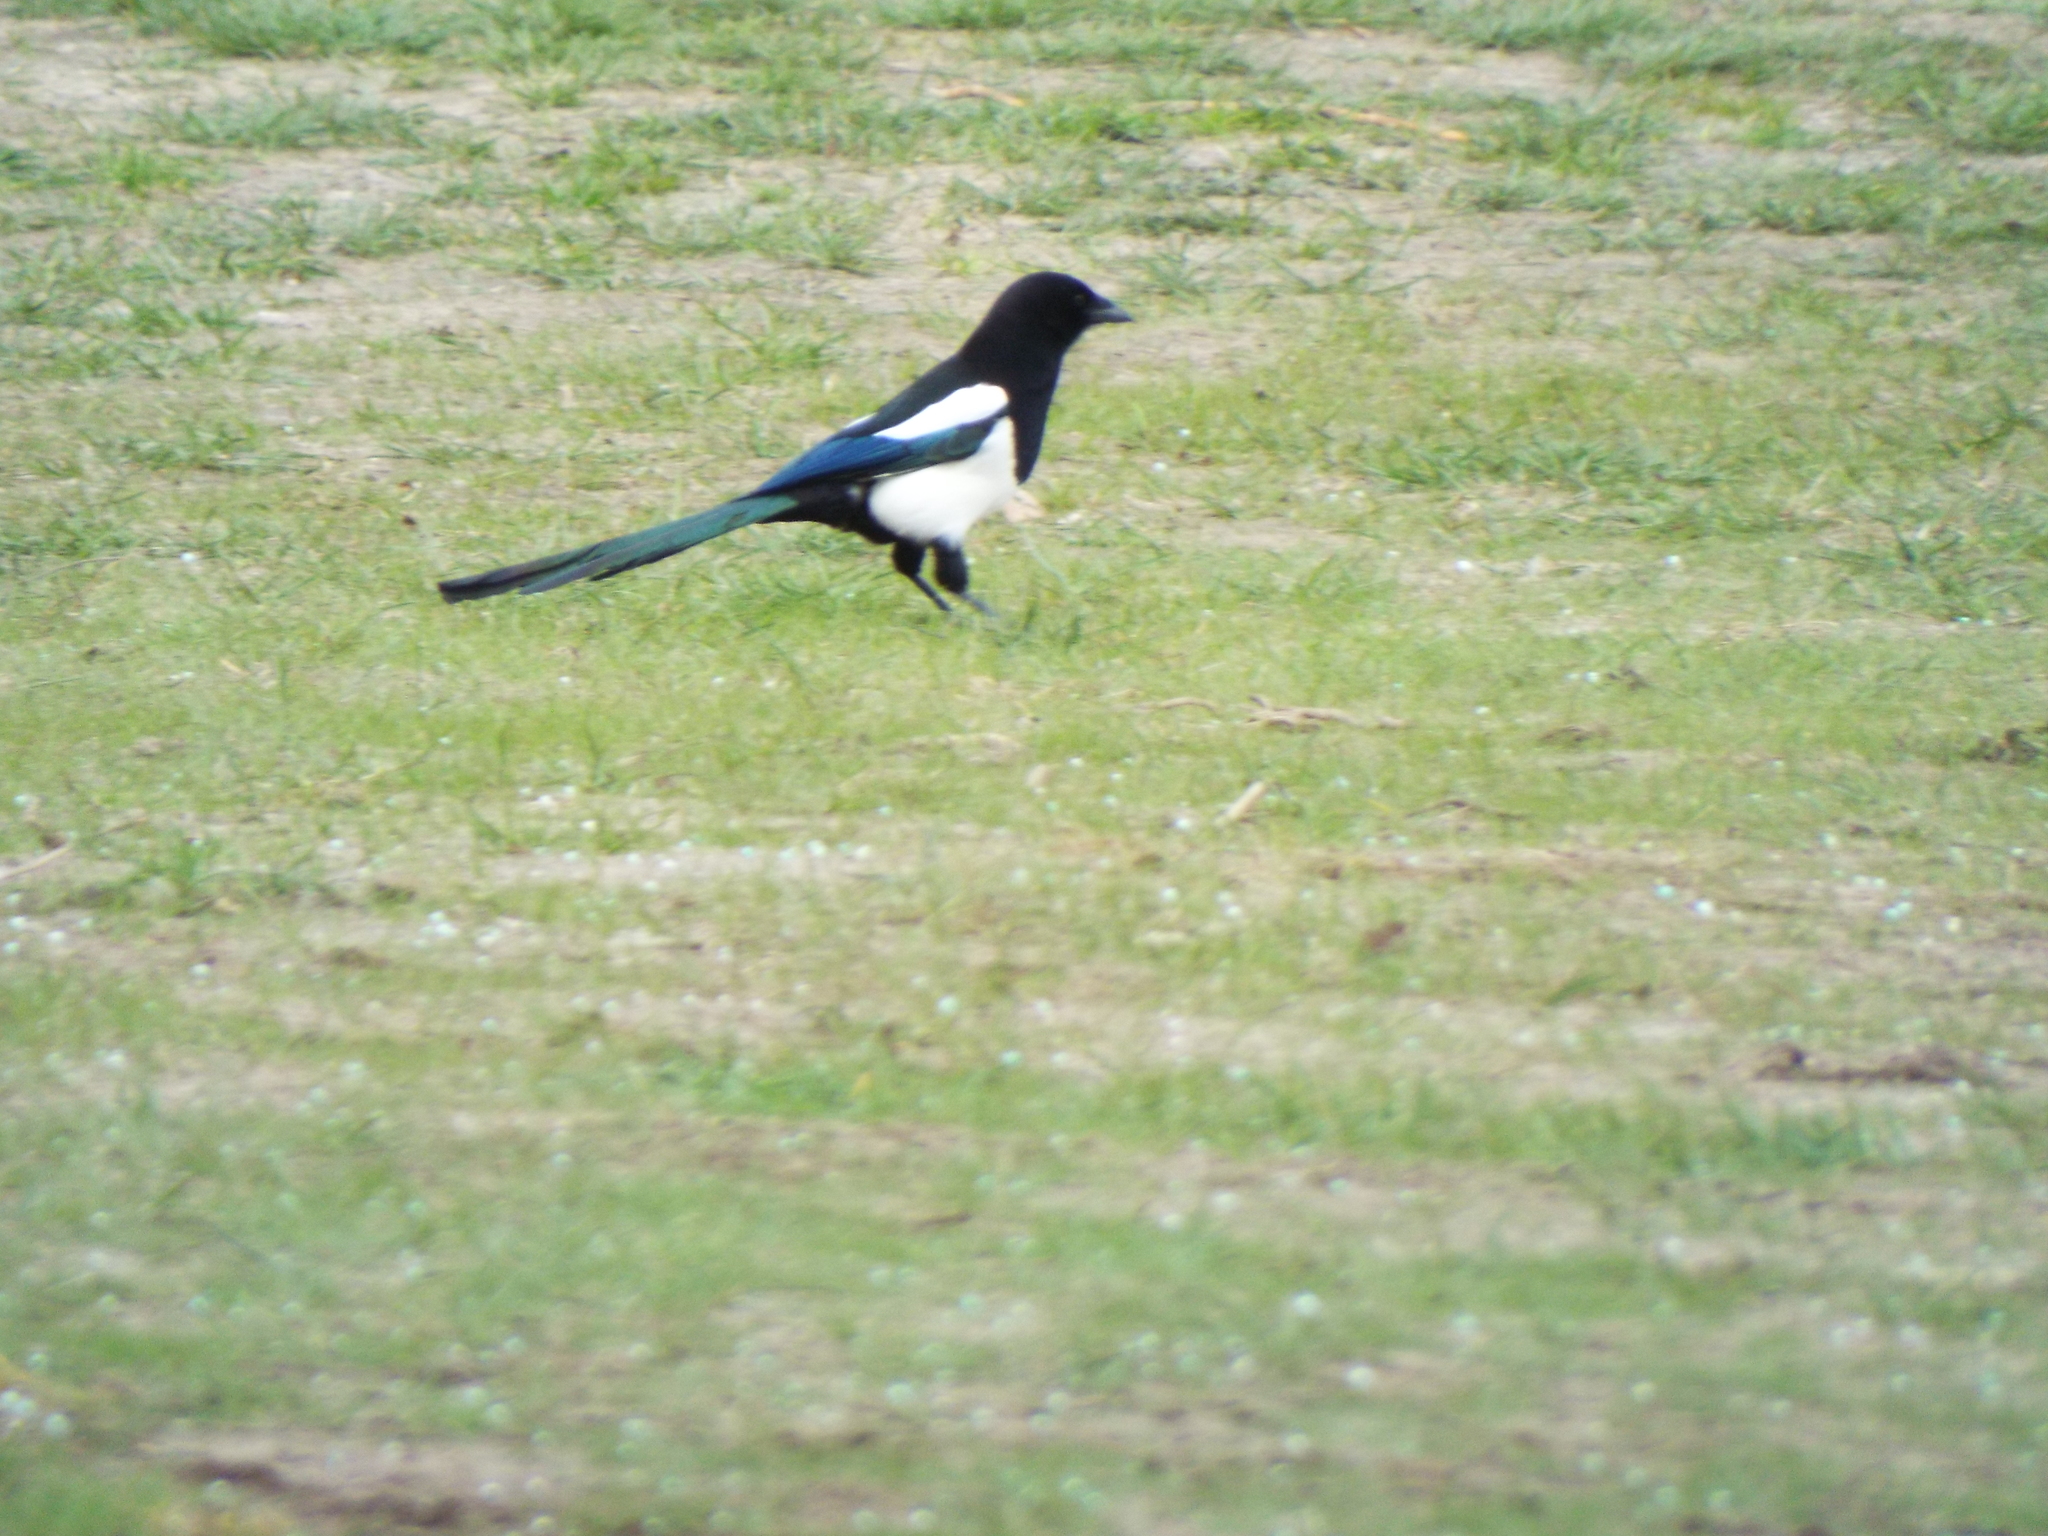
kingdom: Animalia
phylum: Chordata
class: Aves
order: Passeriformes
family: Corvidae
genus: Pica
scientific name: Pica pica
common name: Eurasian magpie
